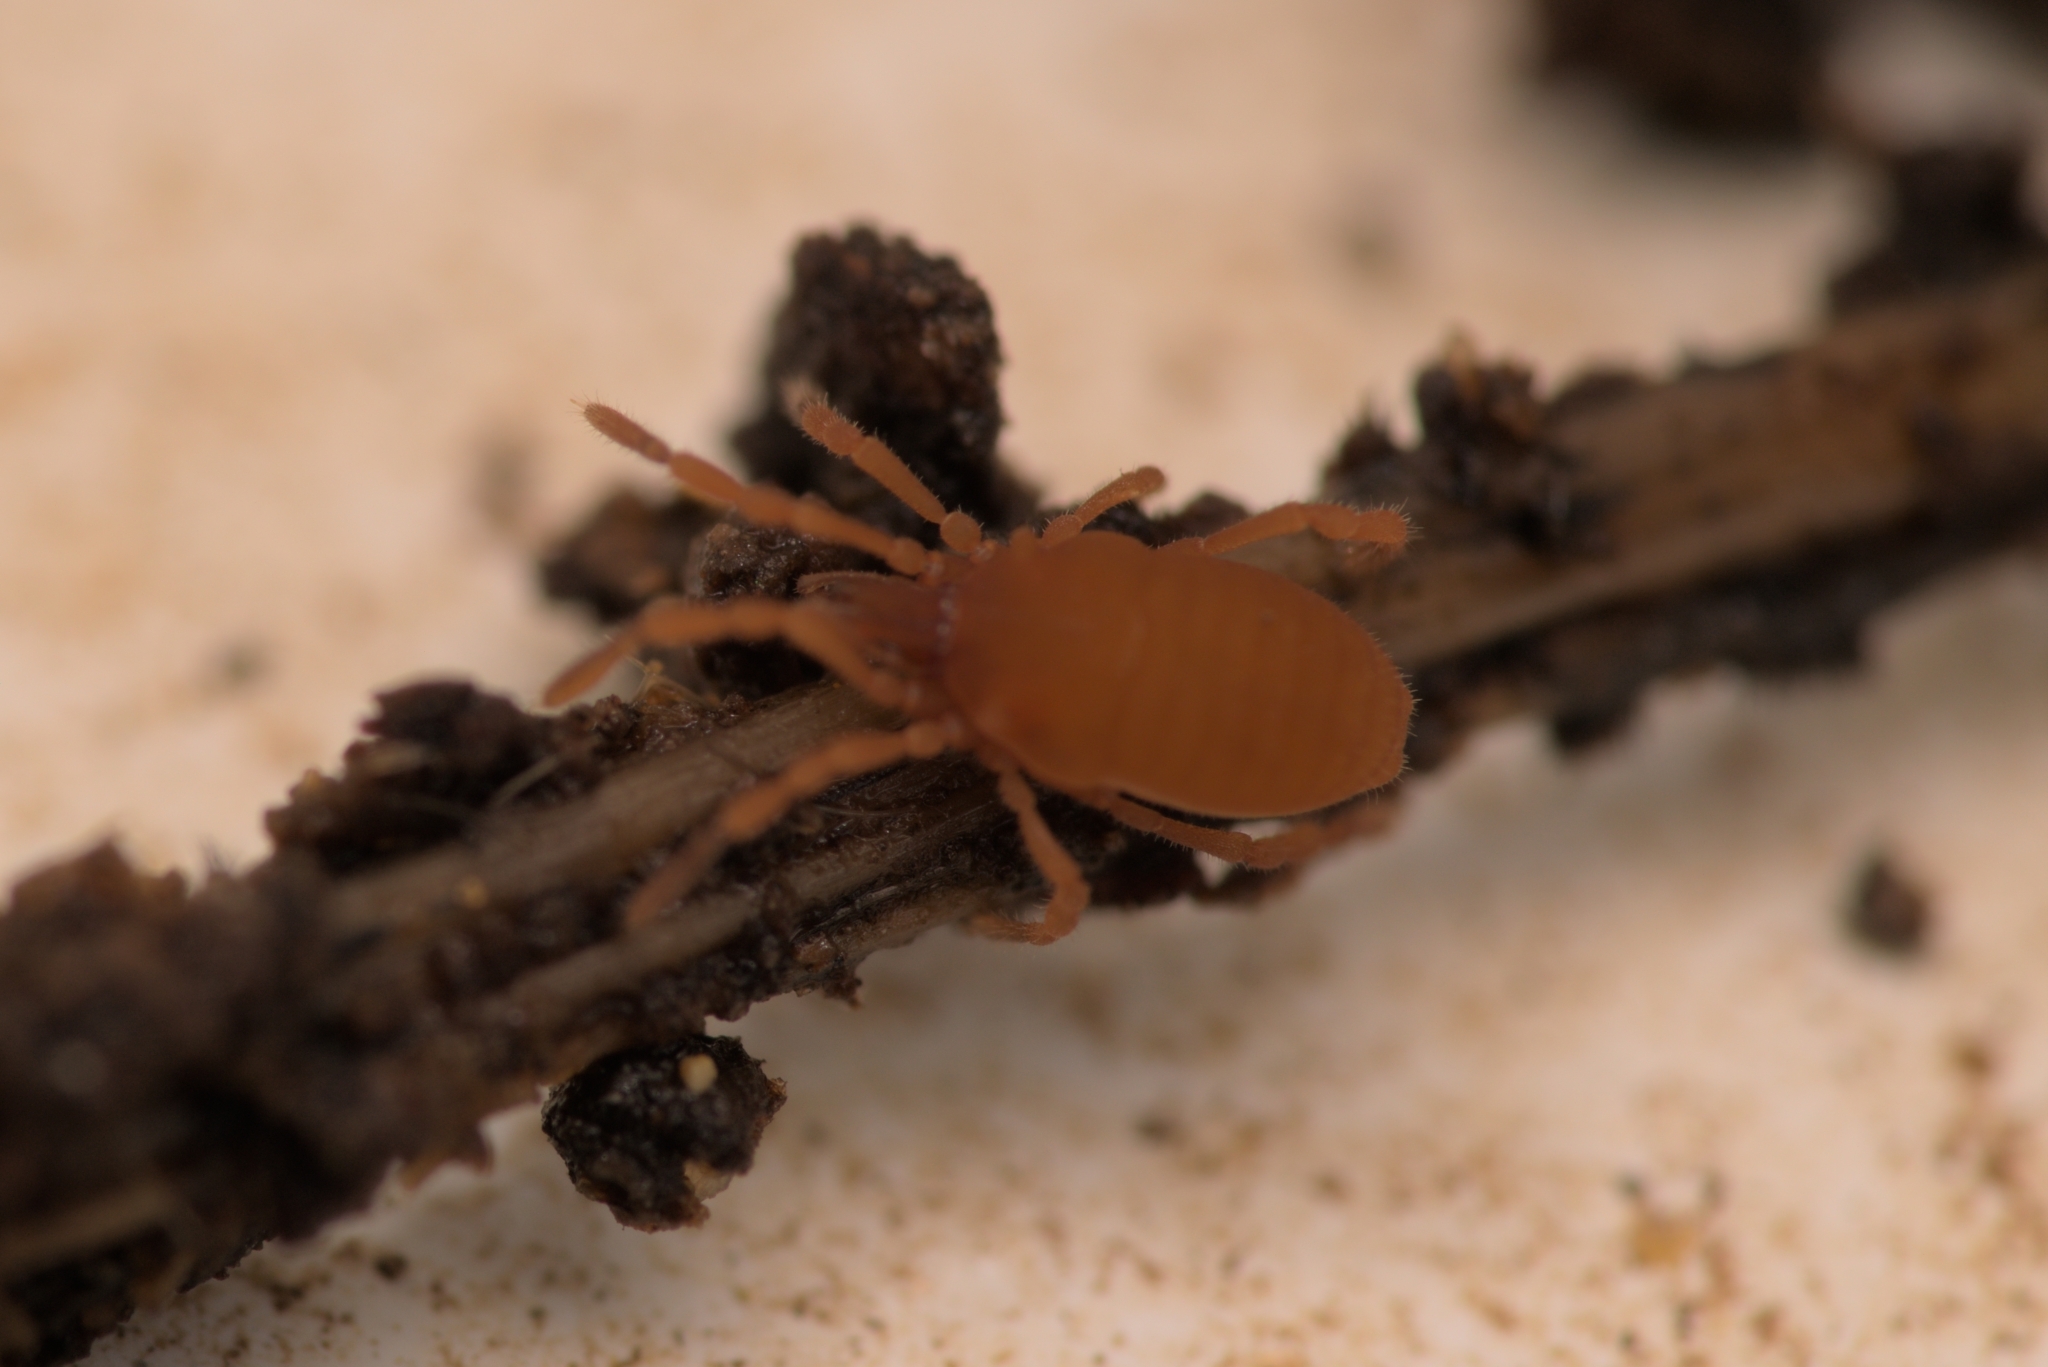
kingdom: Animalia
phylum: Arthropoda
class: Arachnida
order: Opiliones
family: Sironidae
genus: Siro
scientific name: Siro rubens
